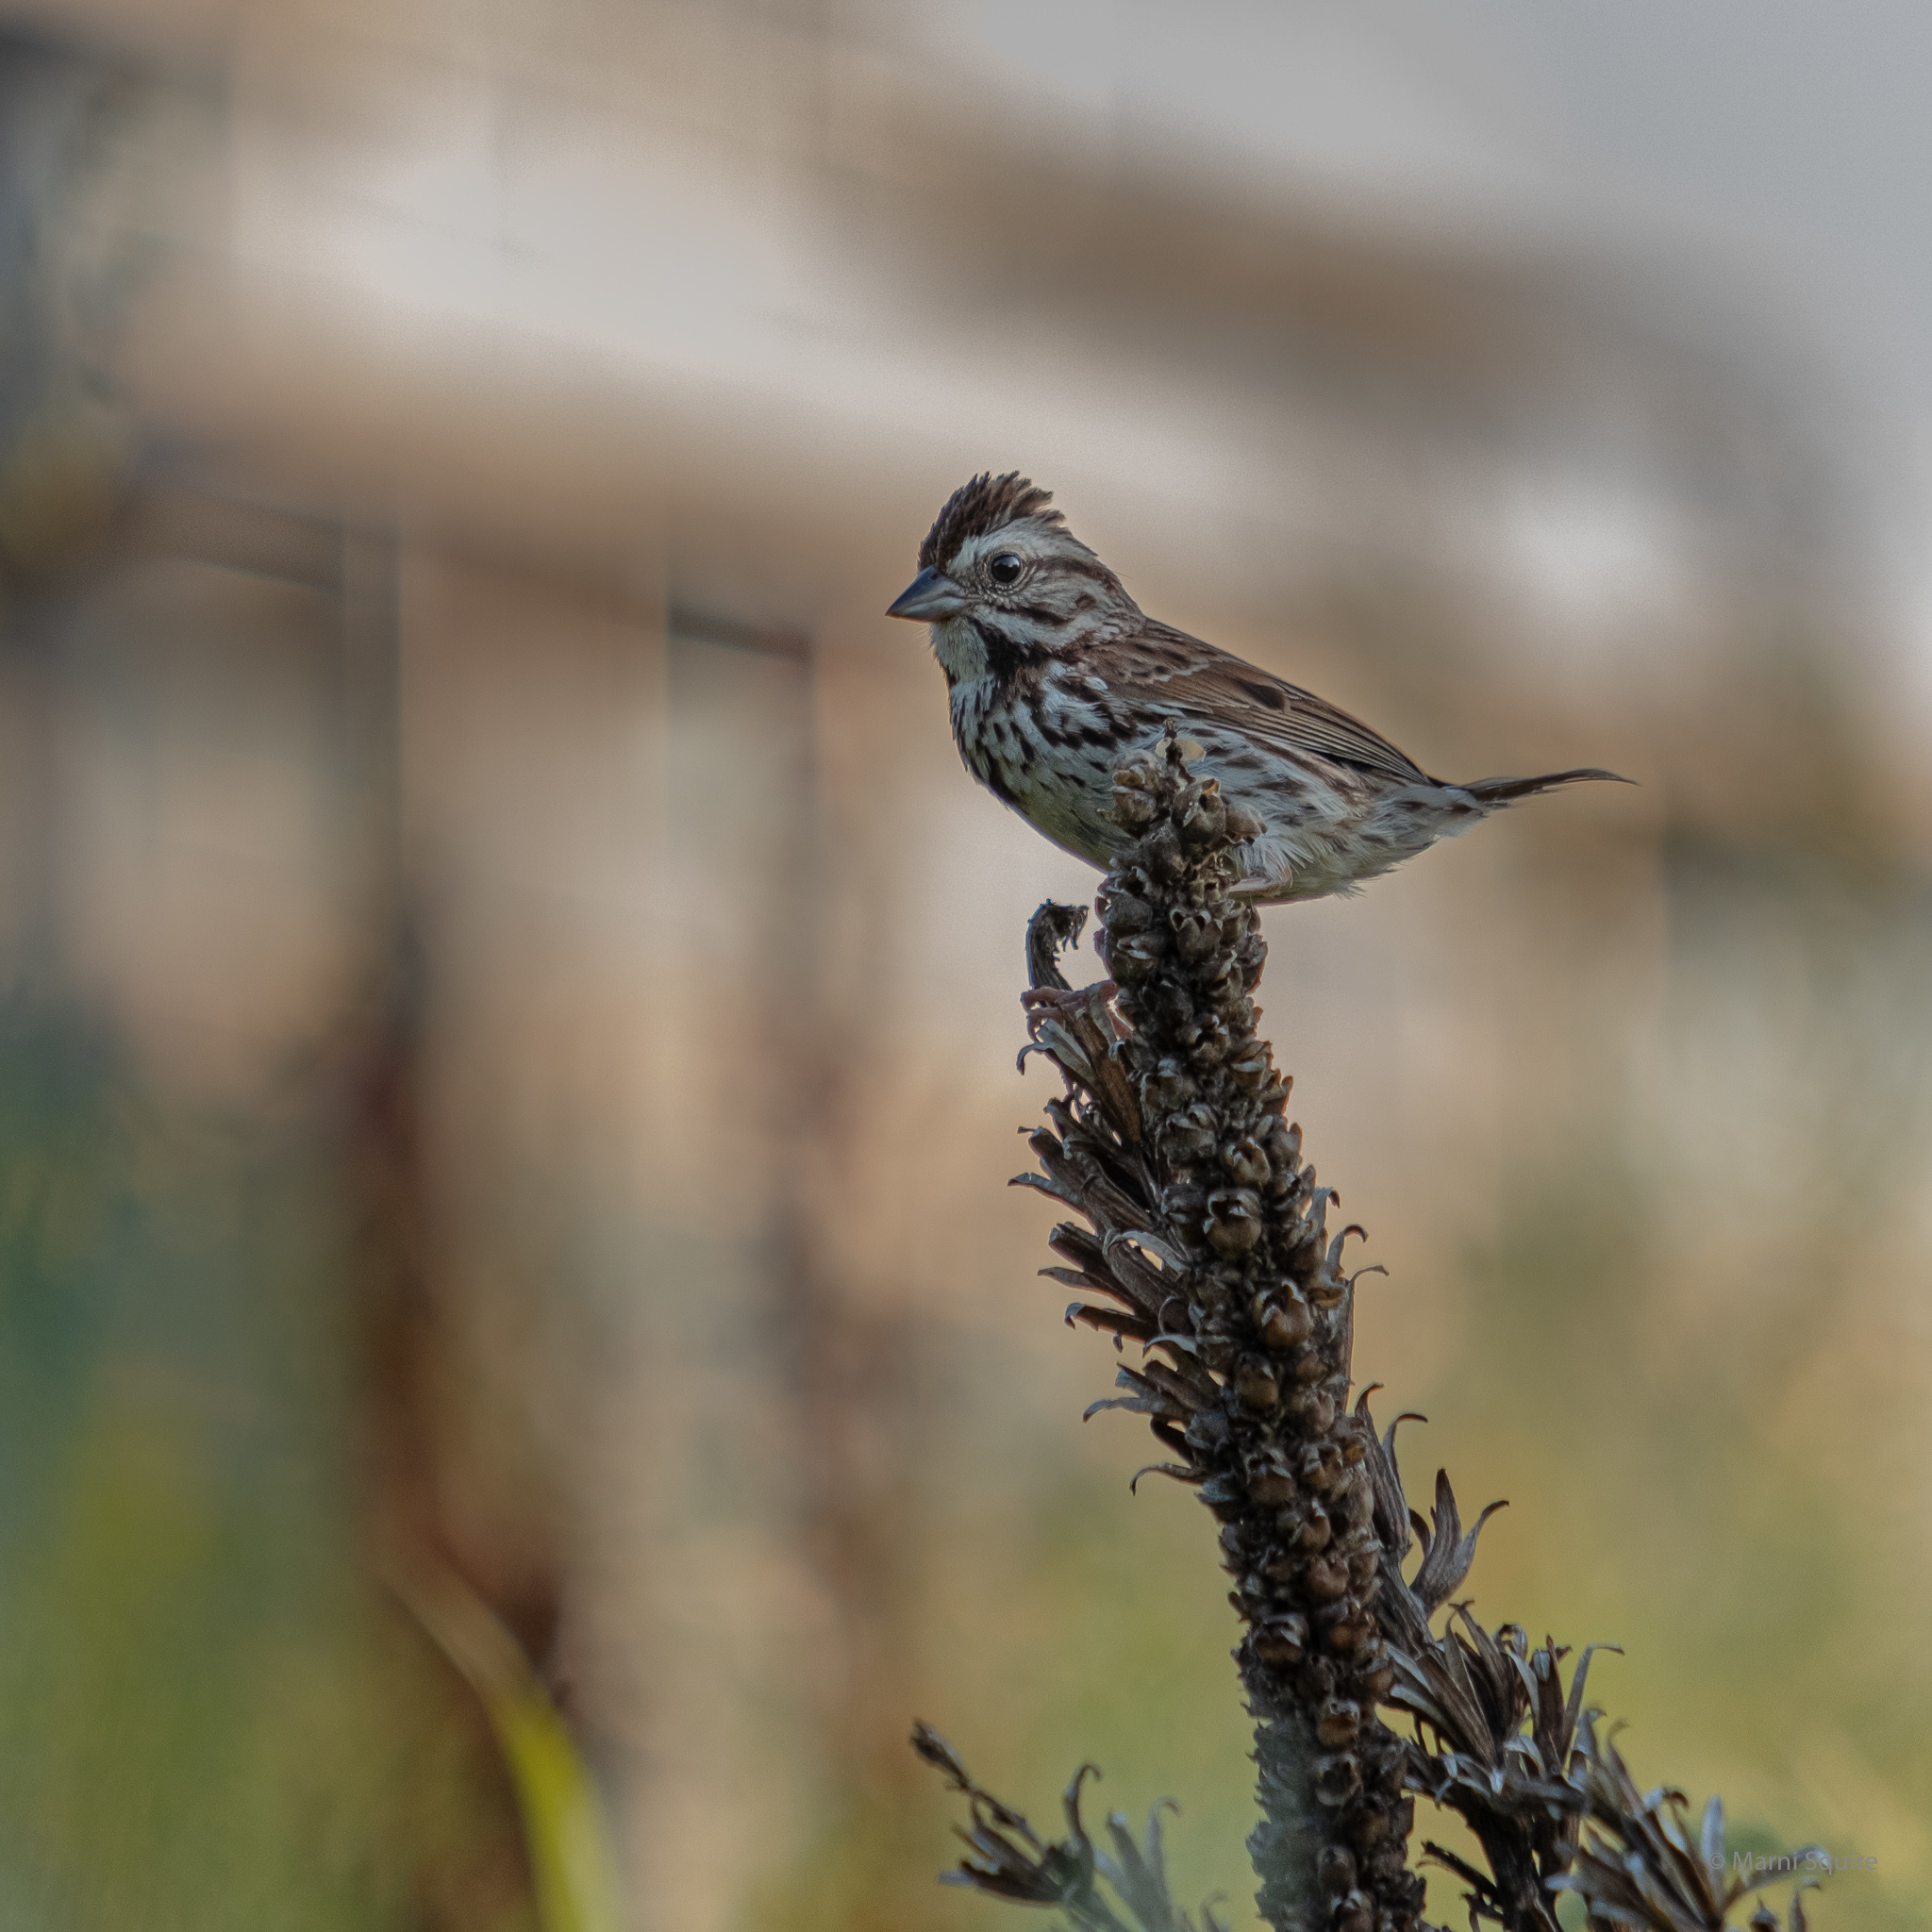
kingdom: Animalia
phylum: Chordata
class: Aves
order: Passeriformes
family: Passerellidae
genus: Melospiza
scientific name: Melospiza melodia
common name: Song sparrow
